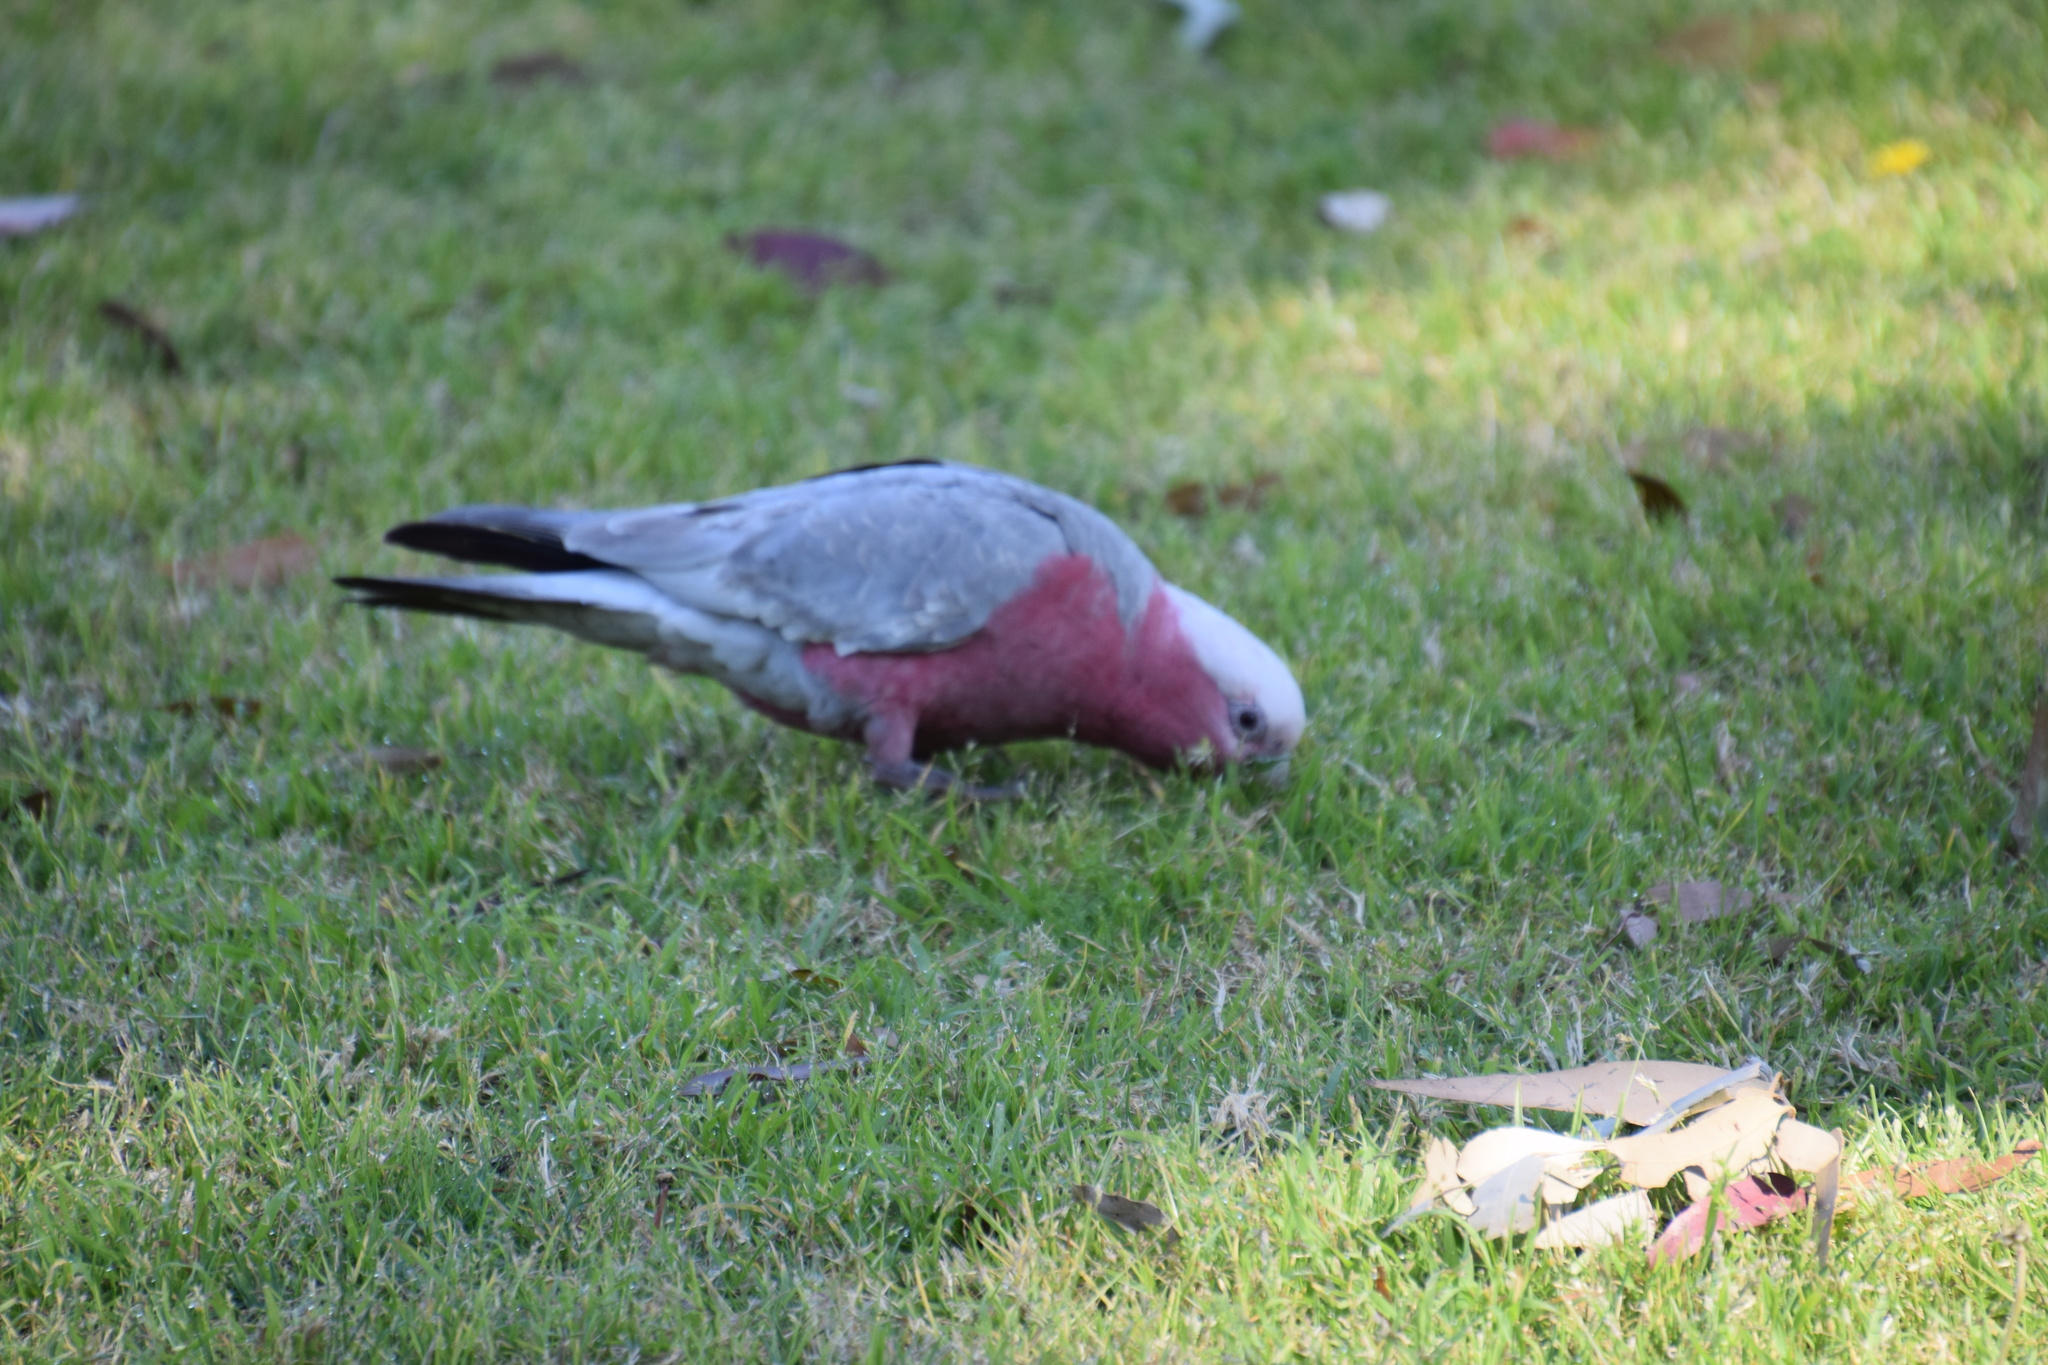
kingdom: Animalia
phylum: Chordata
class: Aves
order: Psittaciformes
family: Psittacidae
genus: Eolophus
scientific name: Eolophus roseicapilla
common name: Galah
